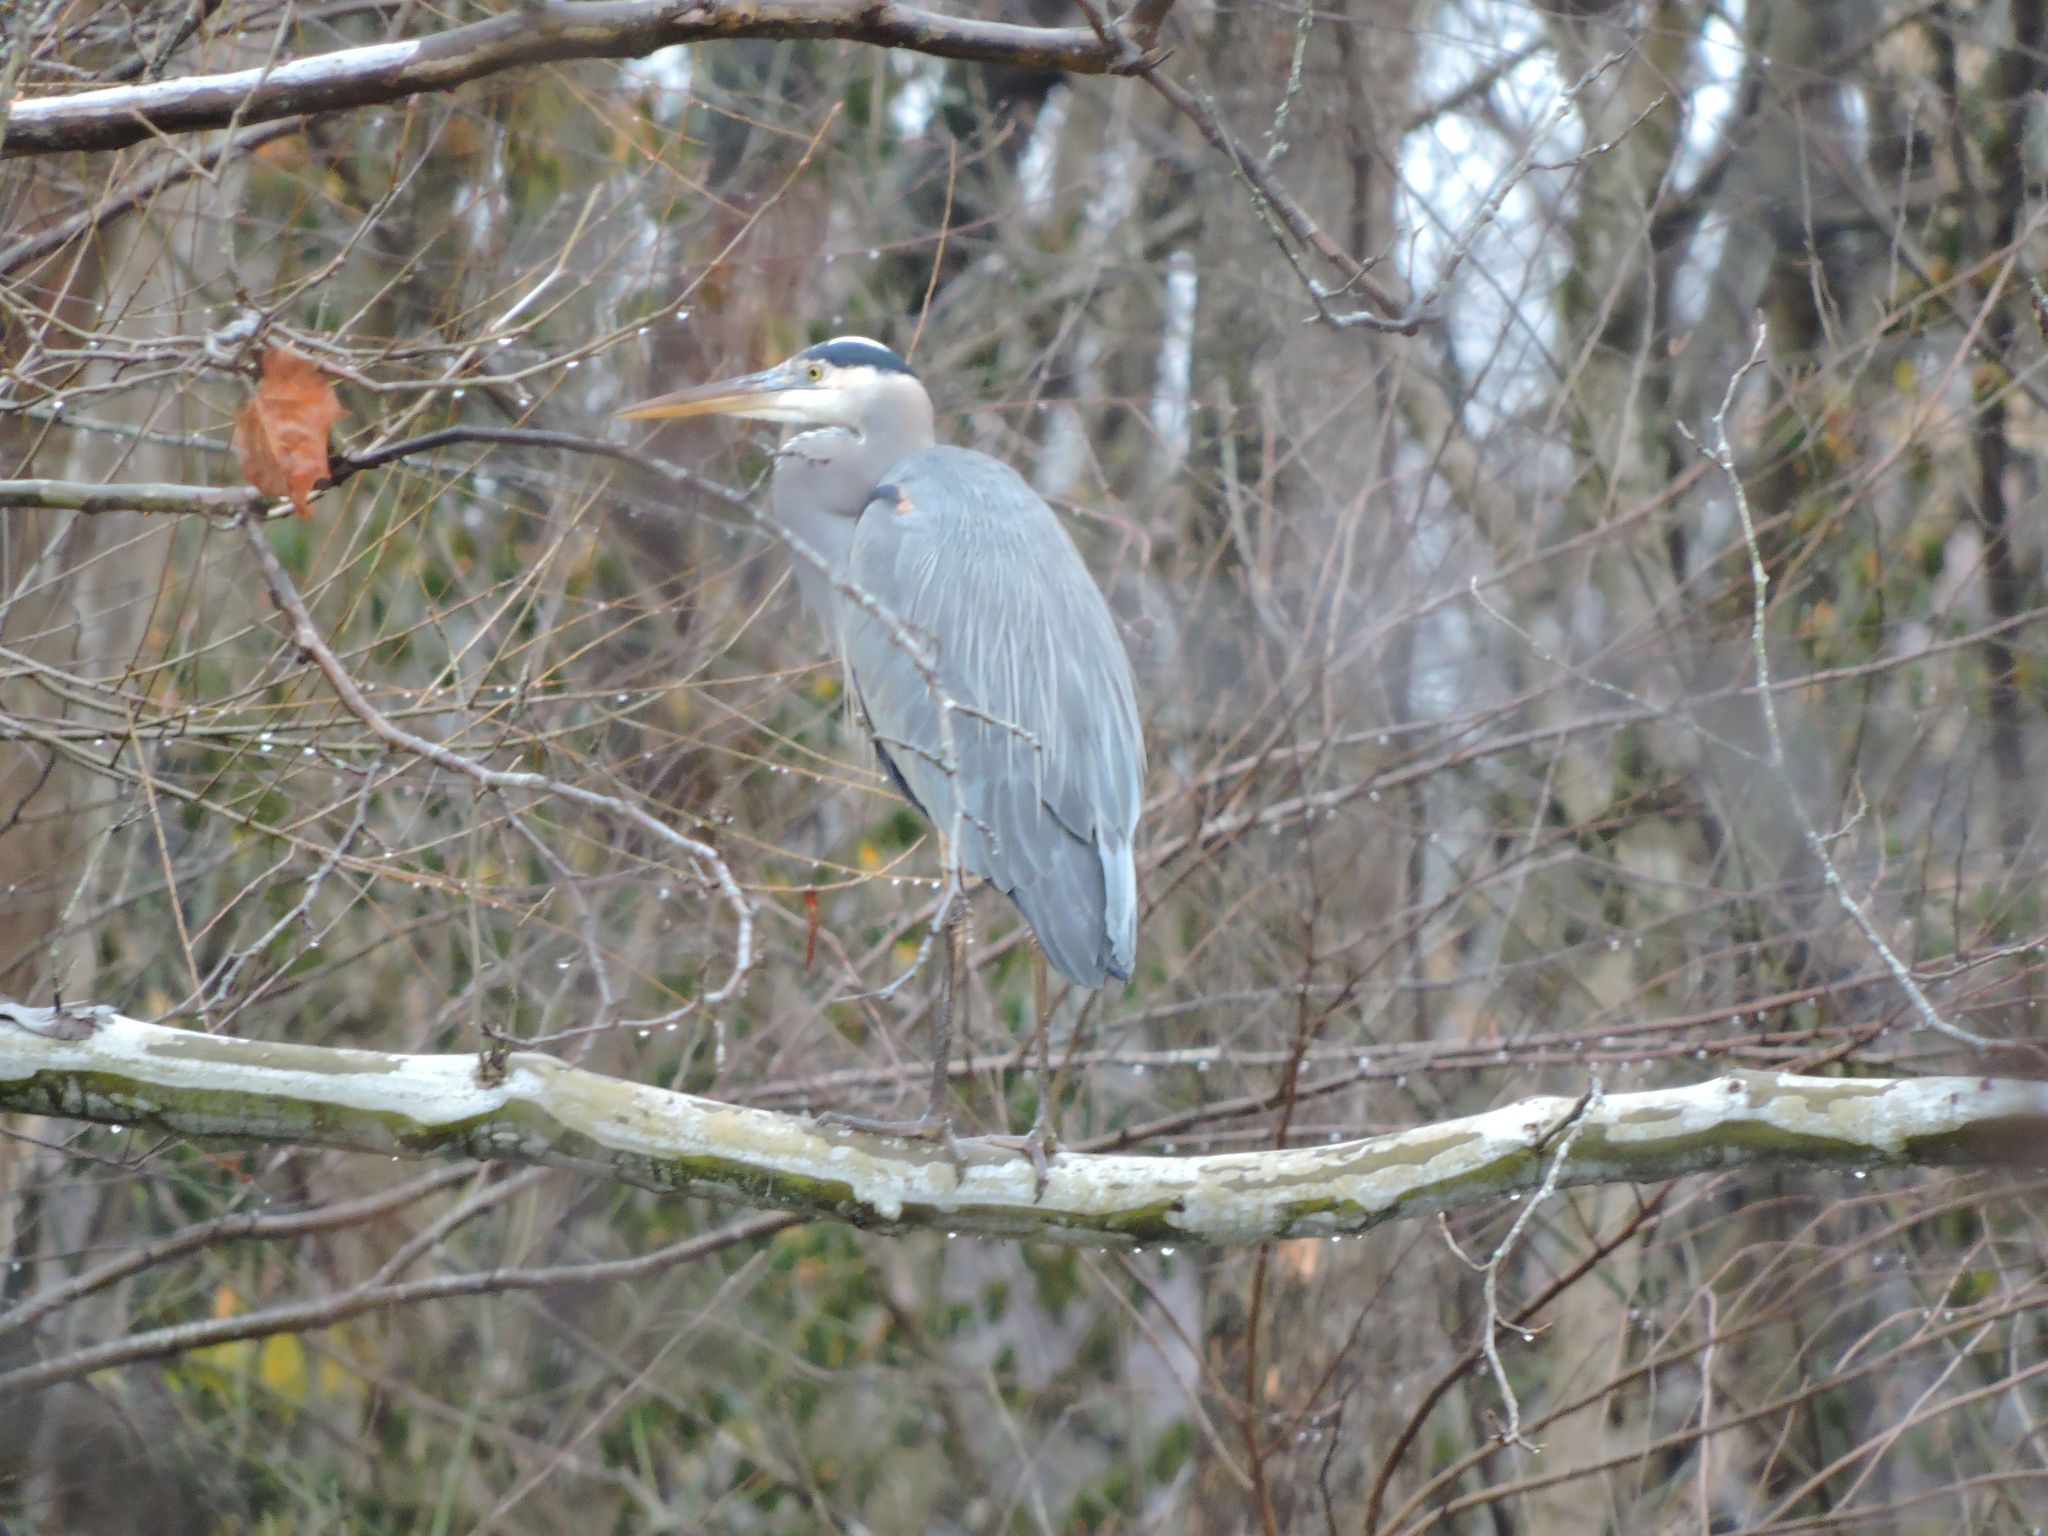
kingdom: Animalia
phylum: Chordata
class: Aves
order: Pelecaniformes
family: Ardeidae
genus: Ardea
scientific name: Ardea herodias
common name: Great blue heron
